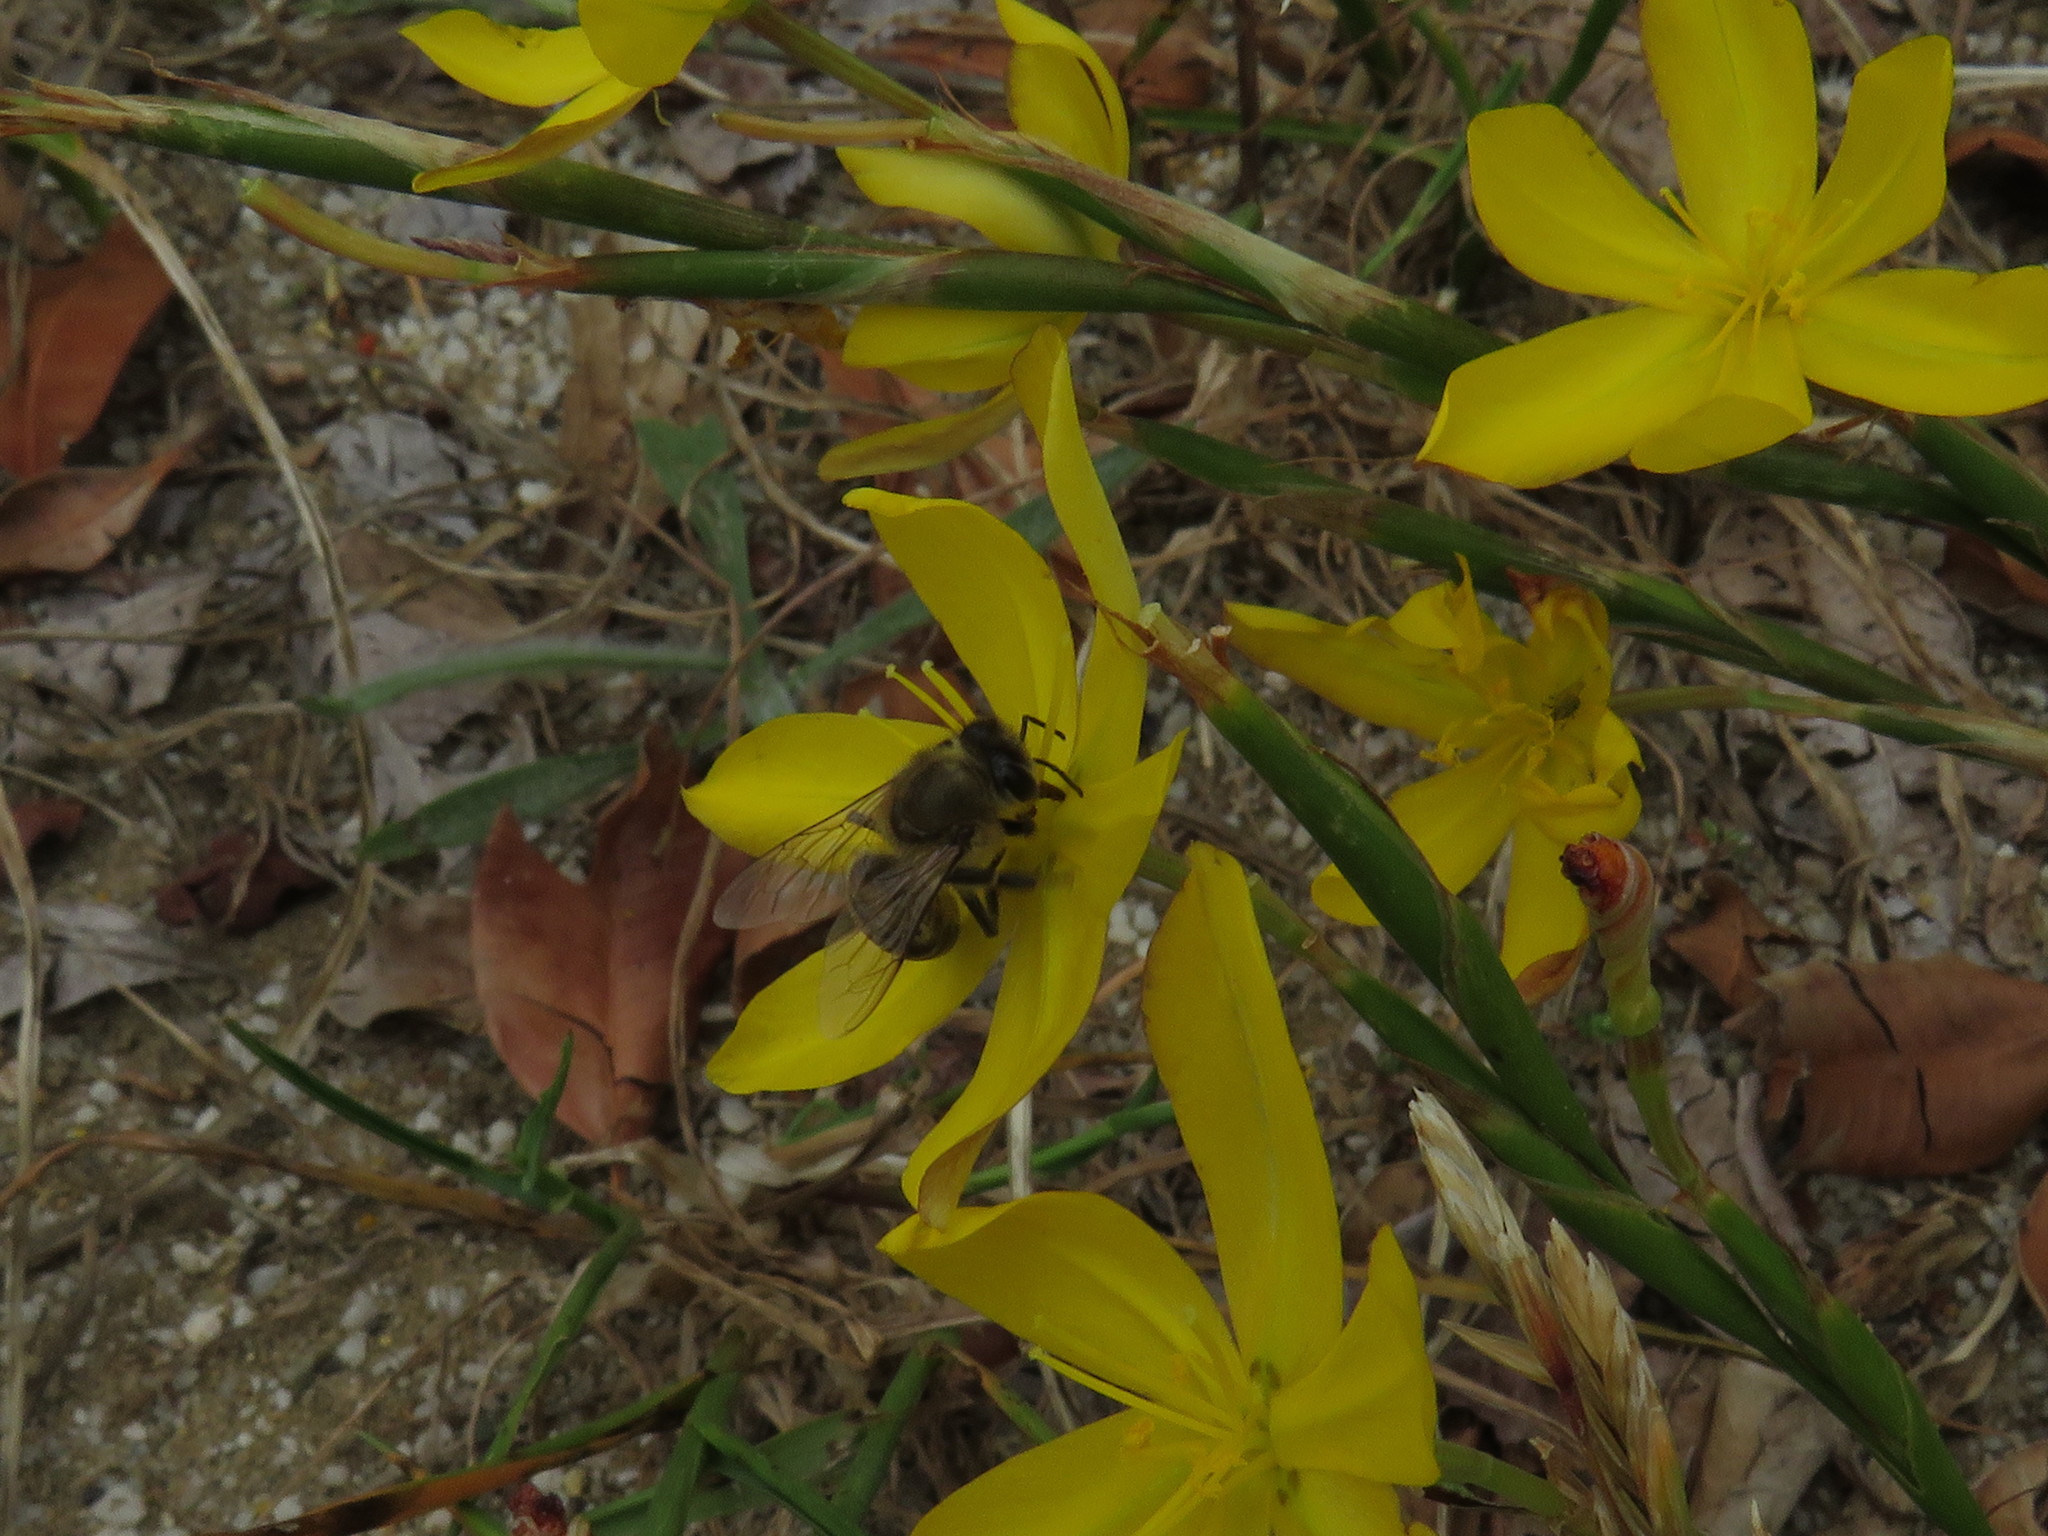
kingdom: Animalia
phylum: Arthropoda
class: Insecta
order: Hymenoptera
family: Apidae
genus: Apis
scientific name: Apis mellifera
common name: Honey bee
